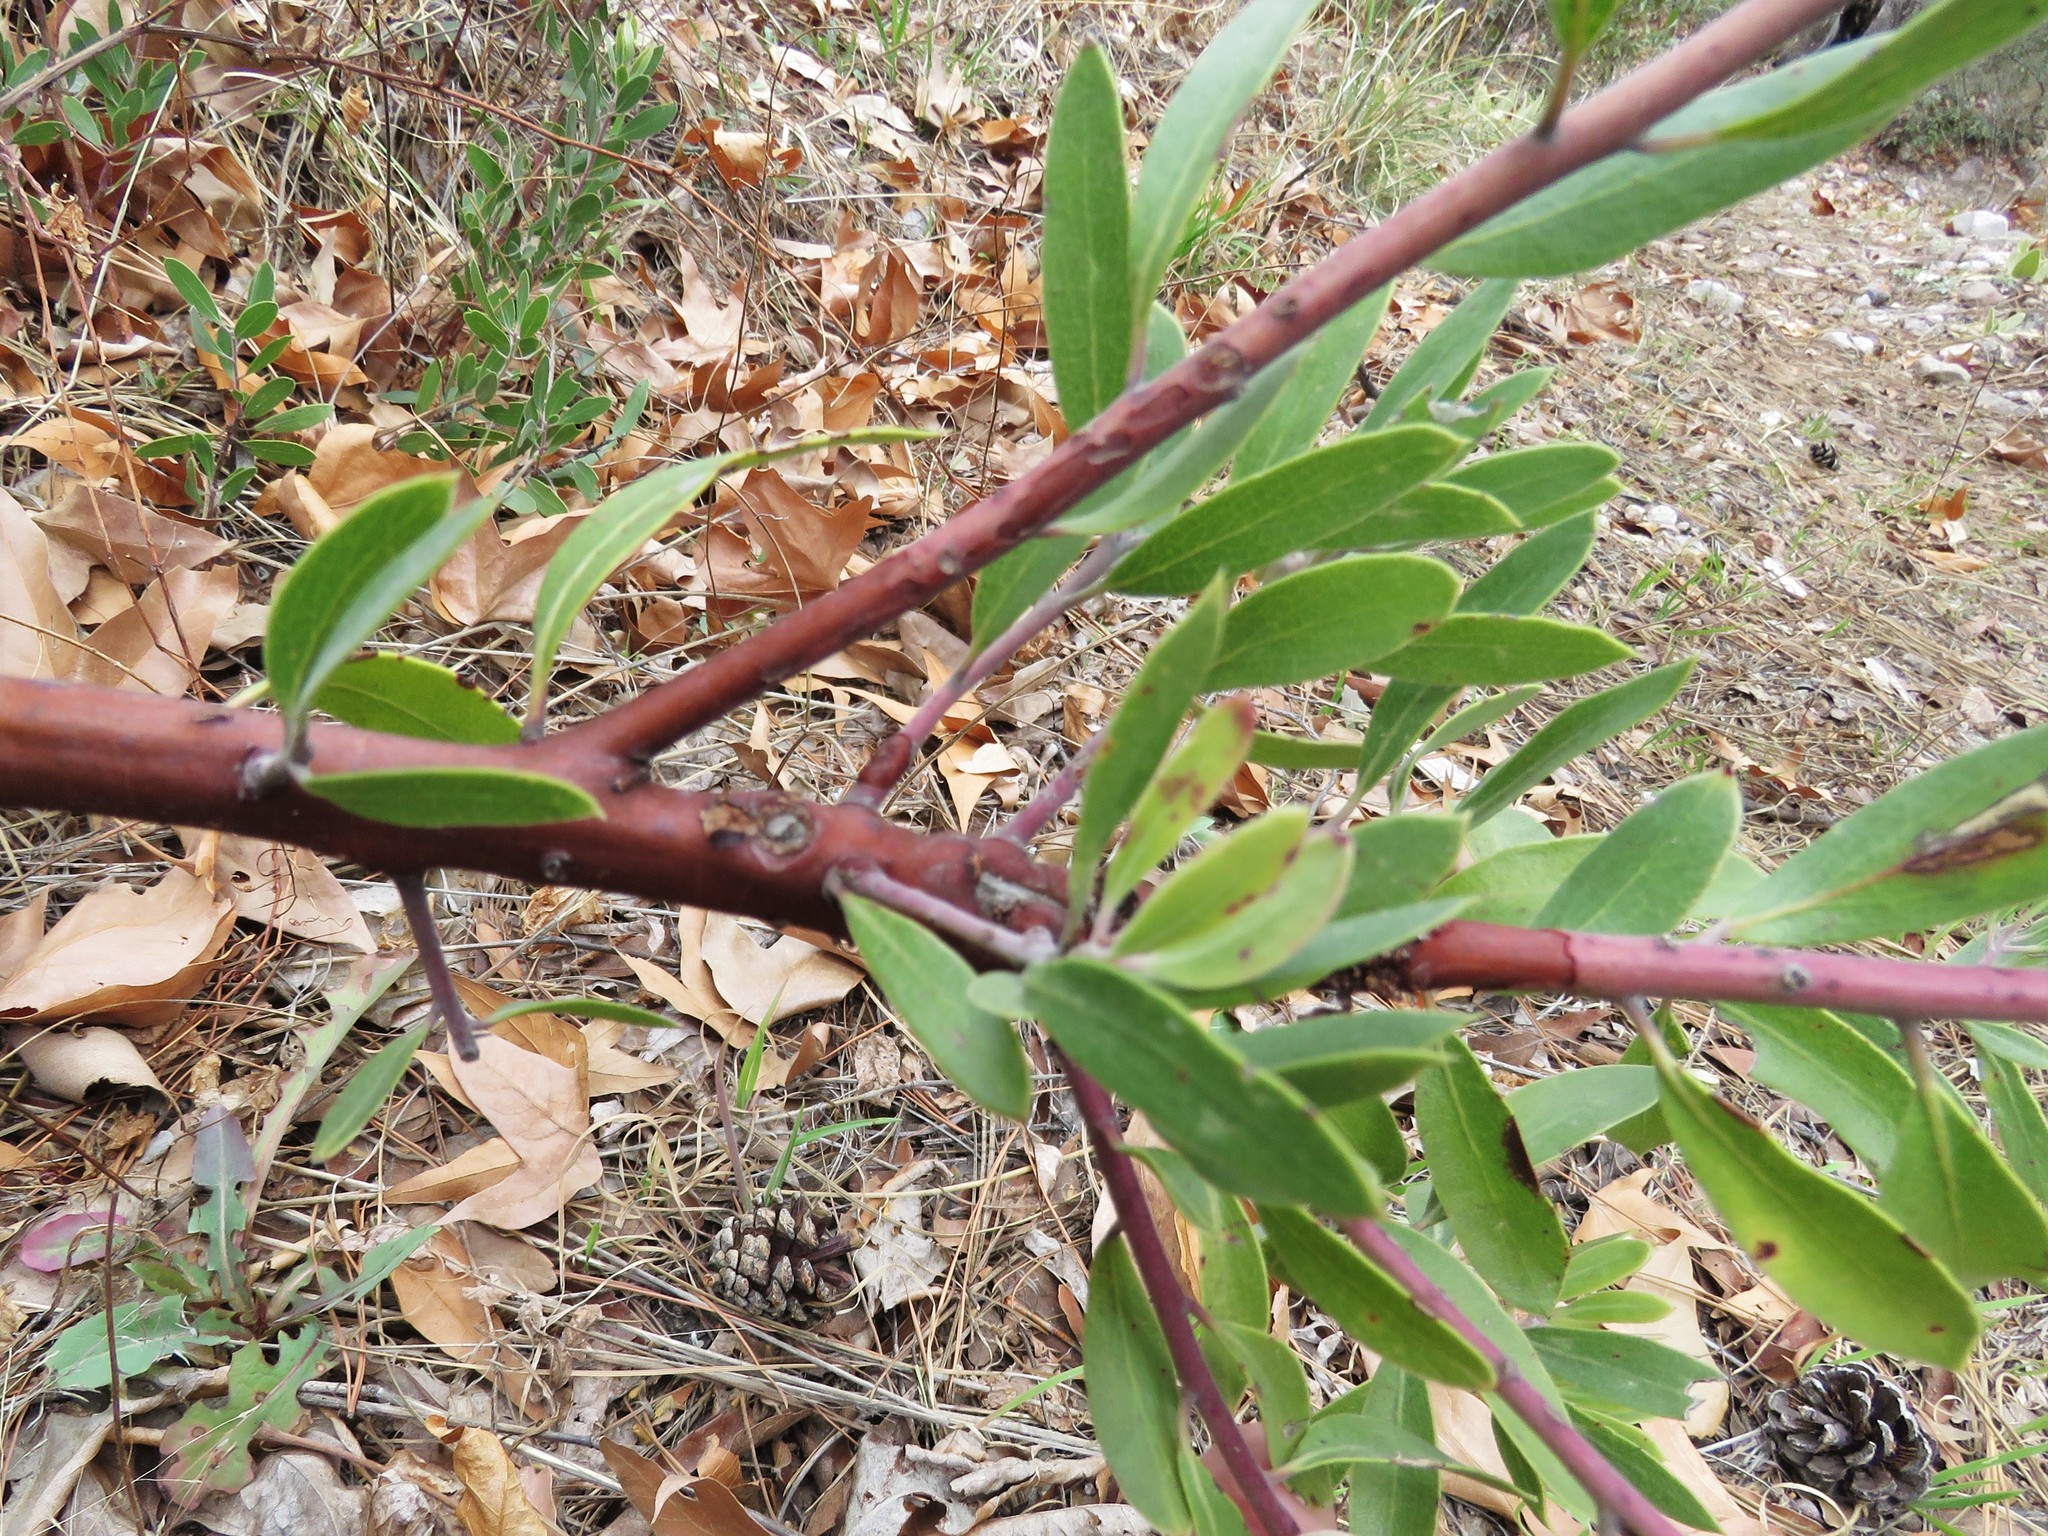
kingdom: Plantae
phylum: Tracheophyta
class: Magnoliopsida
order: Ericales
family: Ericaceae
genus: Arctostaphylos
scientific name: Arctostaphylos pungens
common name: Mexican manzanita
